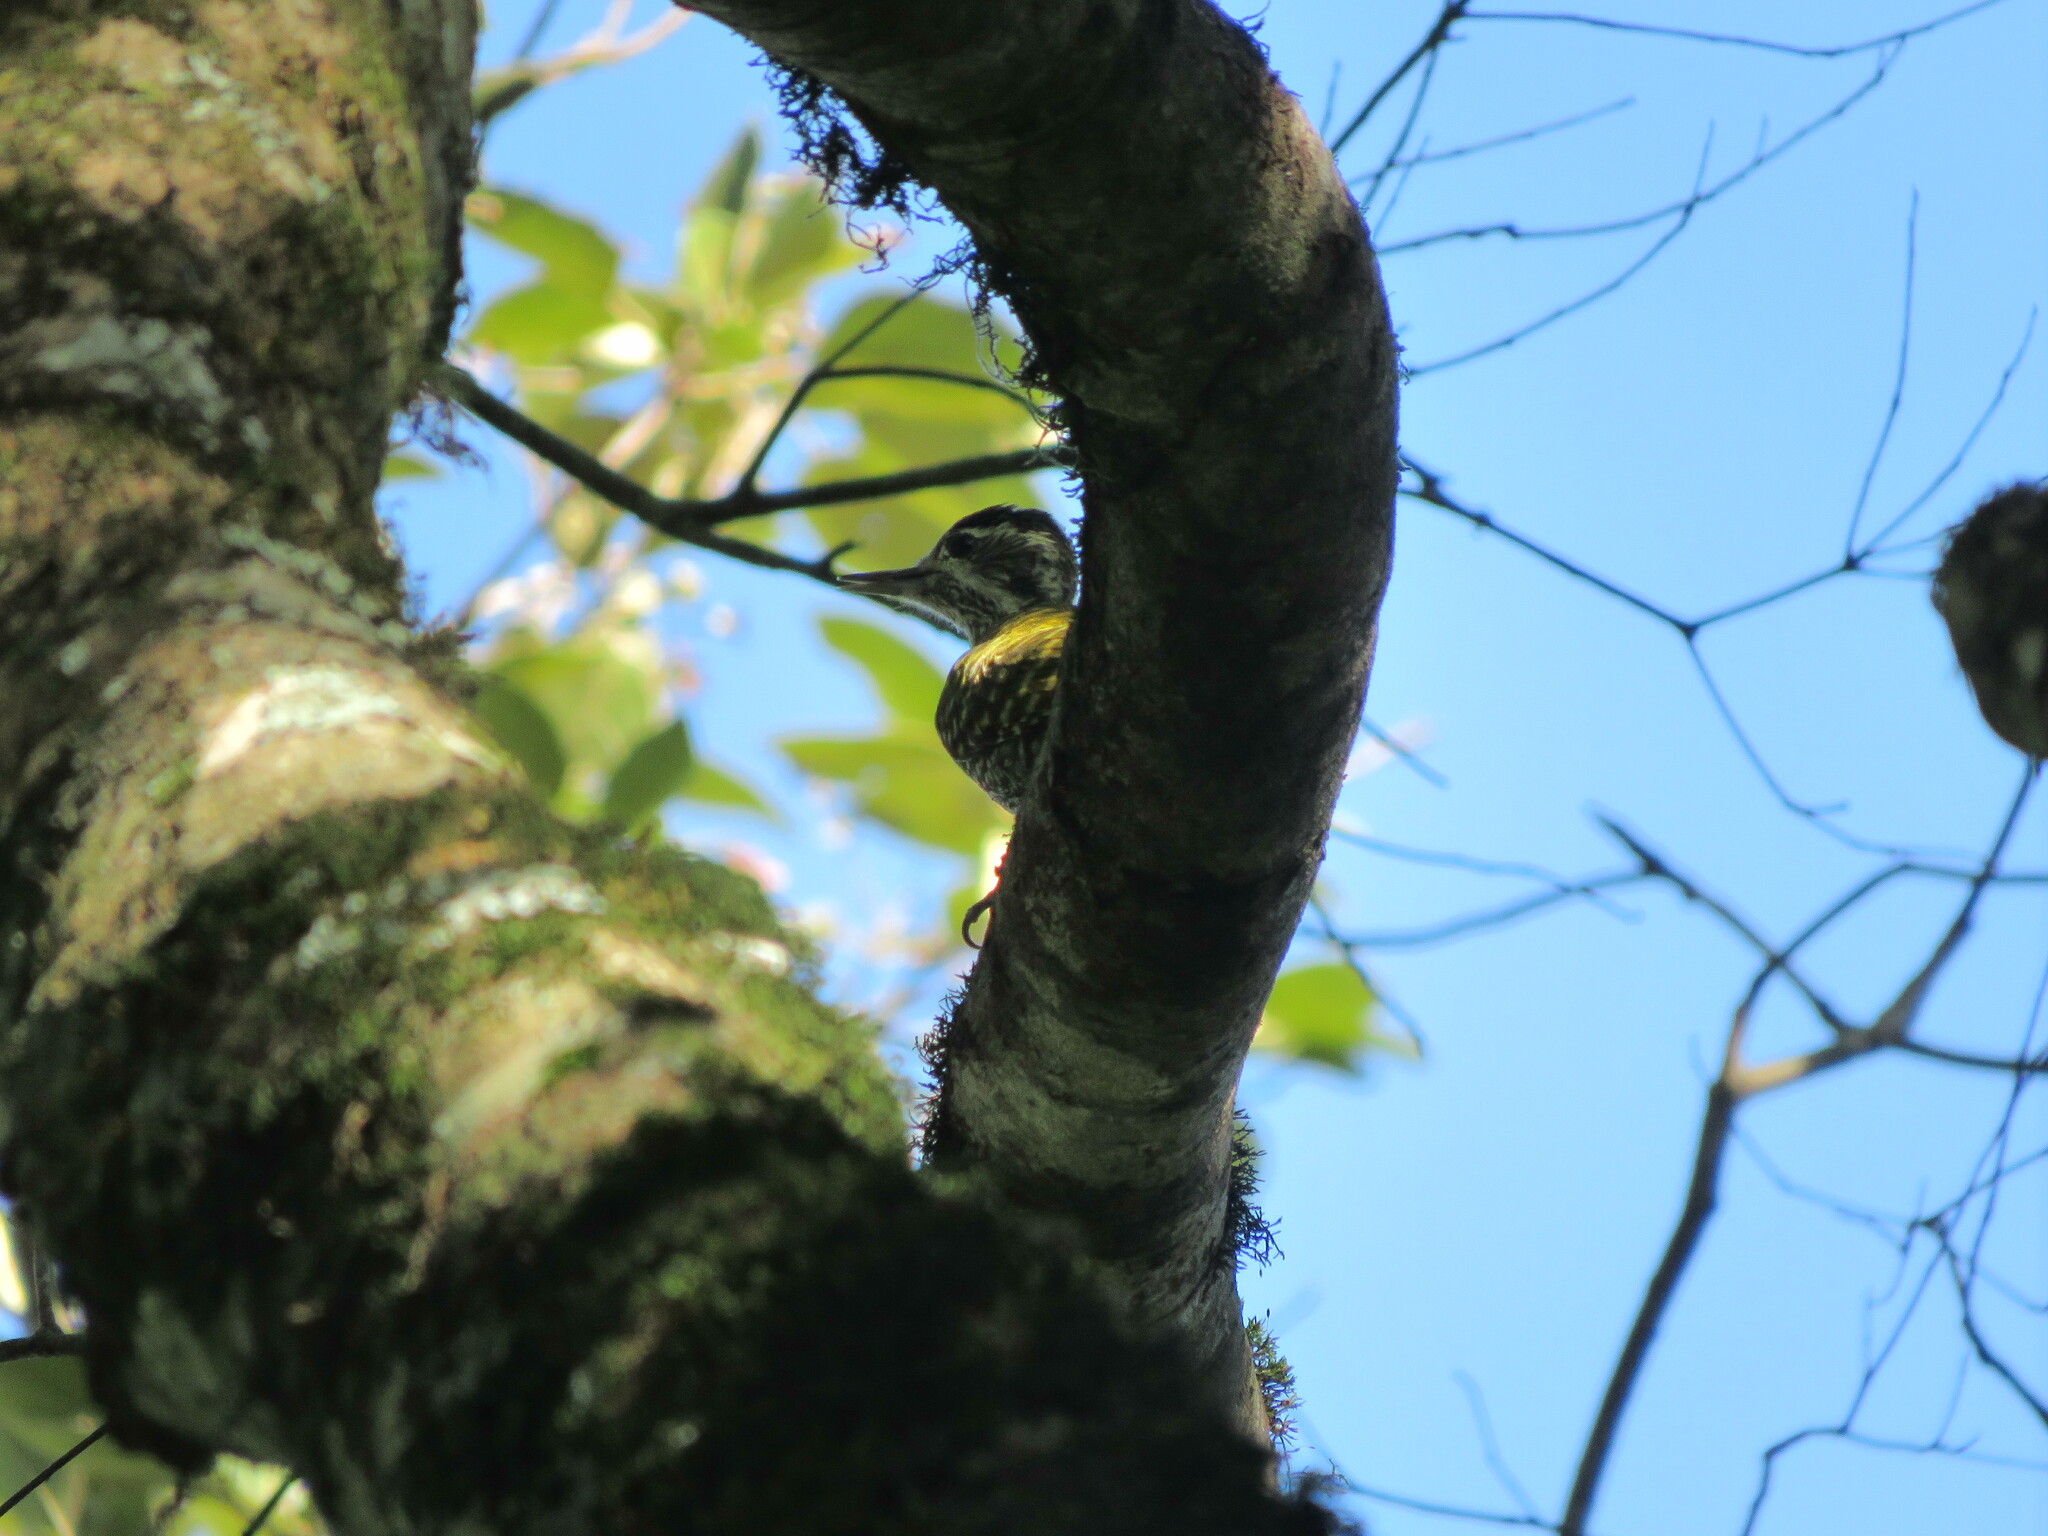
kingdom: Animalia
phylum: Chordata
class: Aves
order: Piciformes
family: Picidae
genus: Veniliornis
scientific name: Veniliornis spilogaster
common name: White-spotted woodpecker
